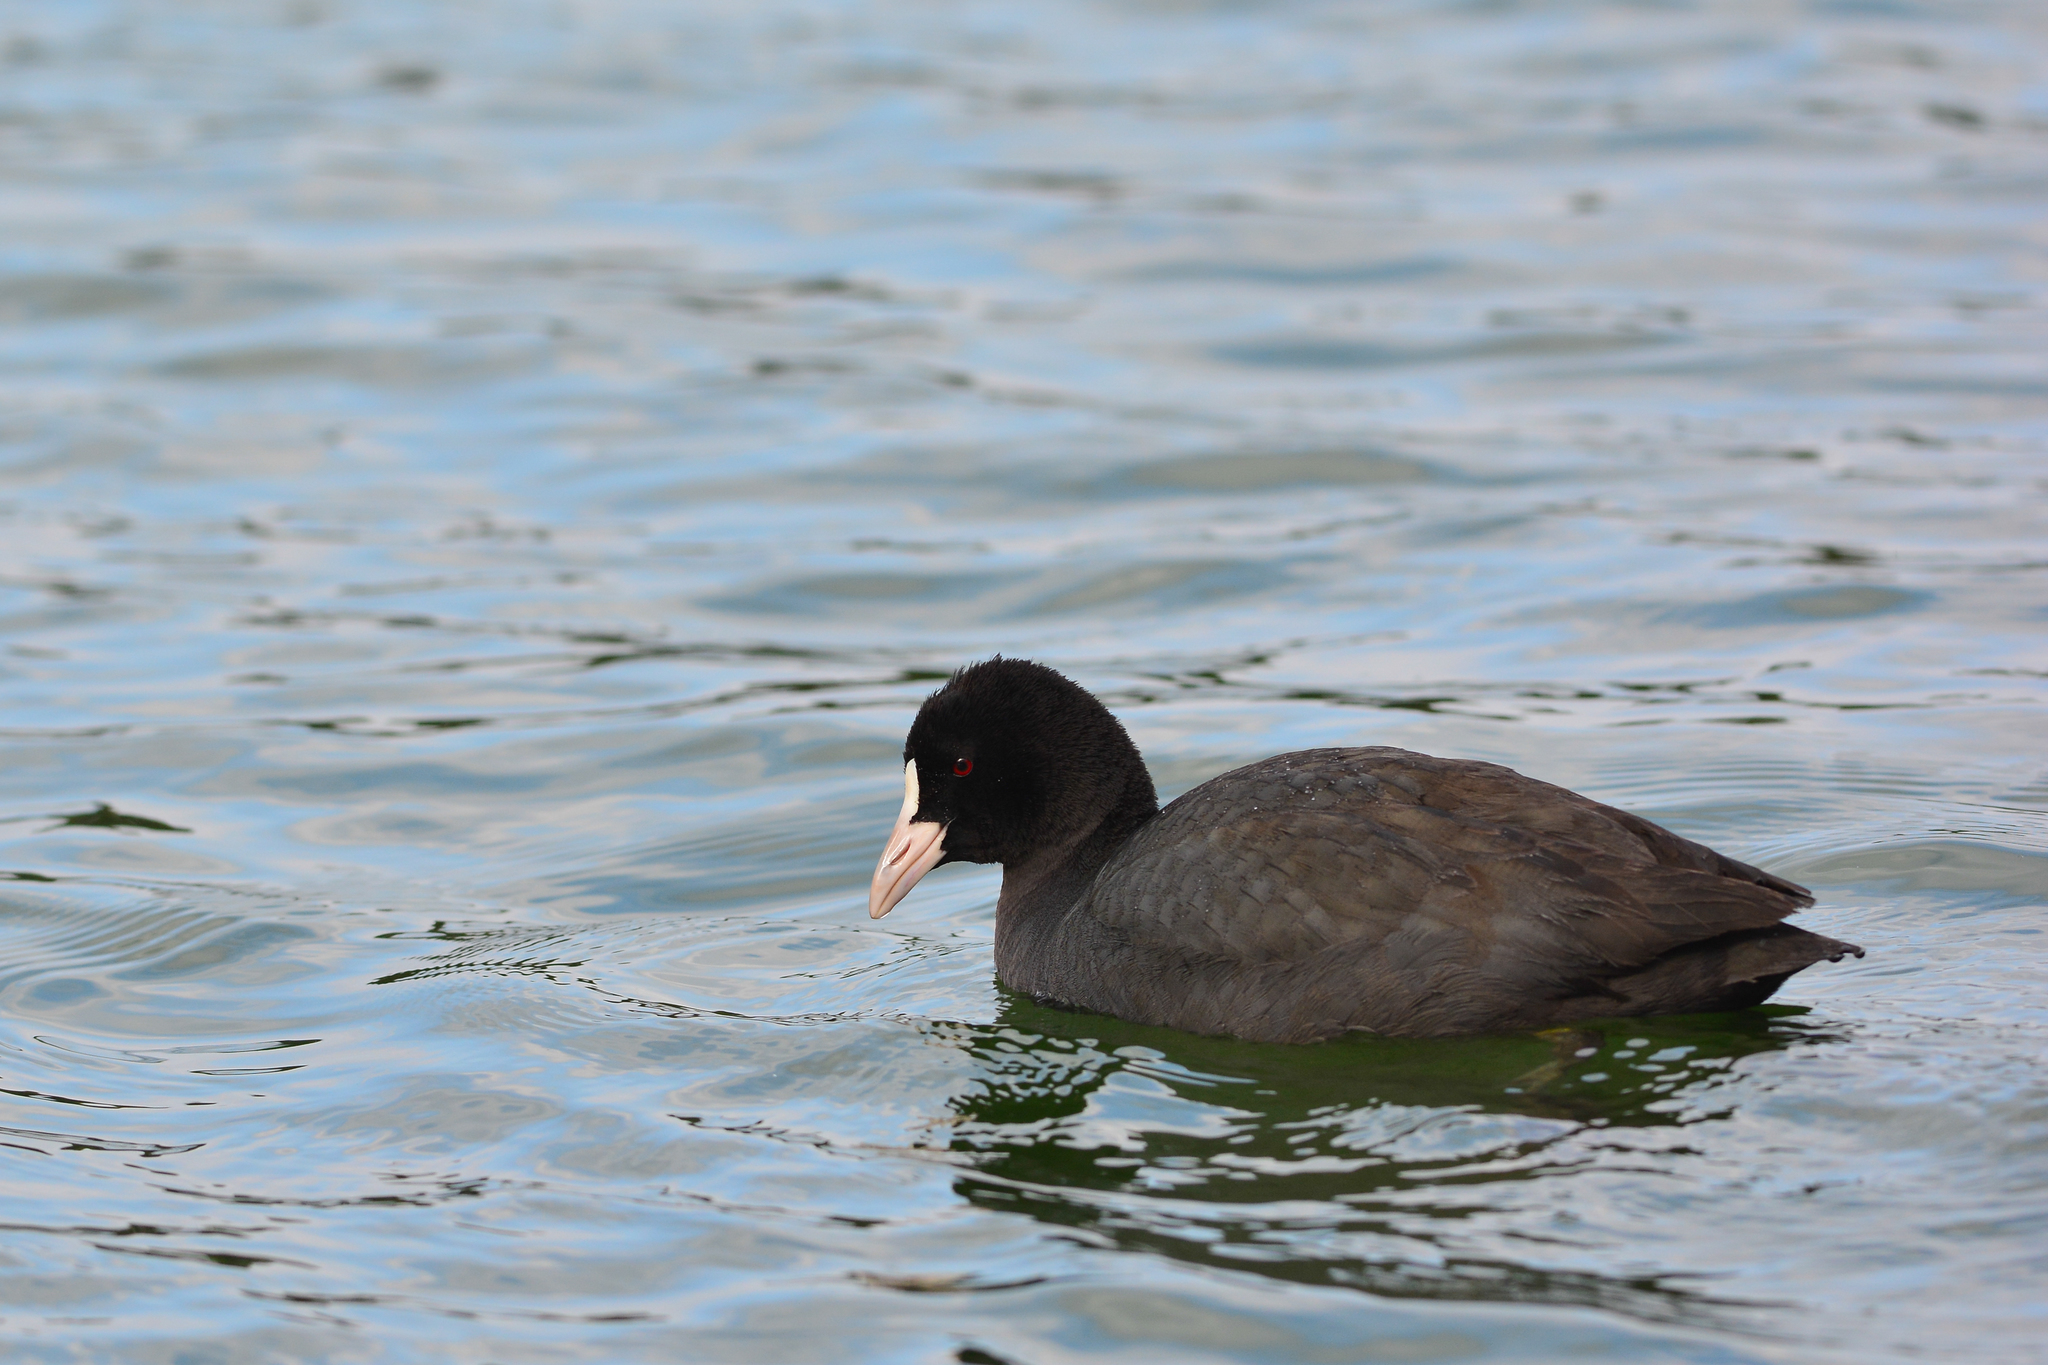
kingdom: Animalia
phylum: Chordata
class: Aves
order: Gruiformes
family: Rallidae
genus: Fulica
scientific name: Fulica atra
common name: Eurasian coot
